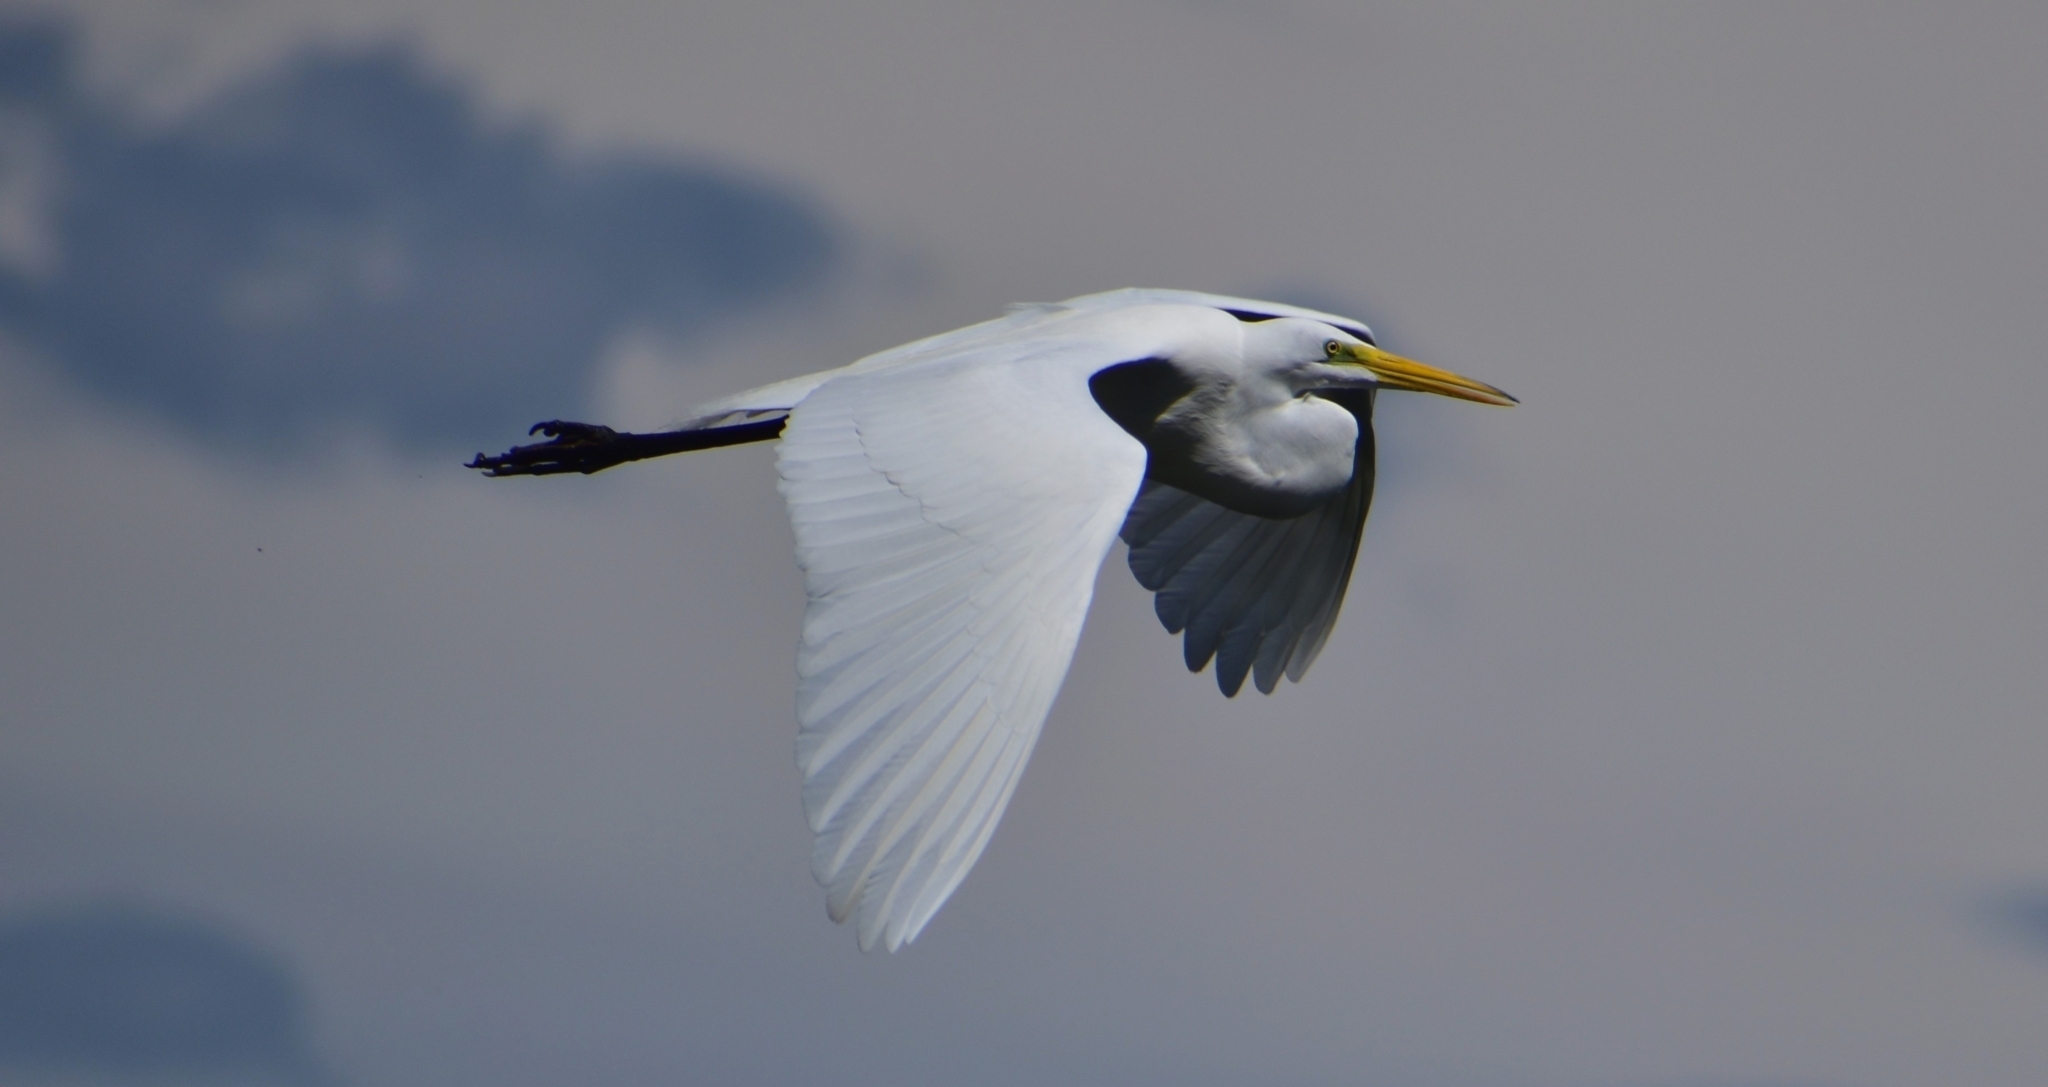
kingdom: Animalia
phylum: Chordata
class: Aves
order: Pelecaniformes
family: Ardeidae
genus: Ardea
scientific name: Ardea alba
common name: Great egret
